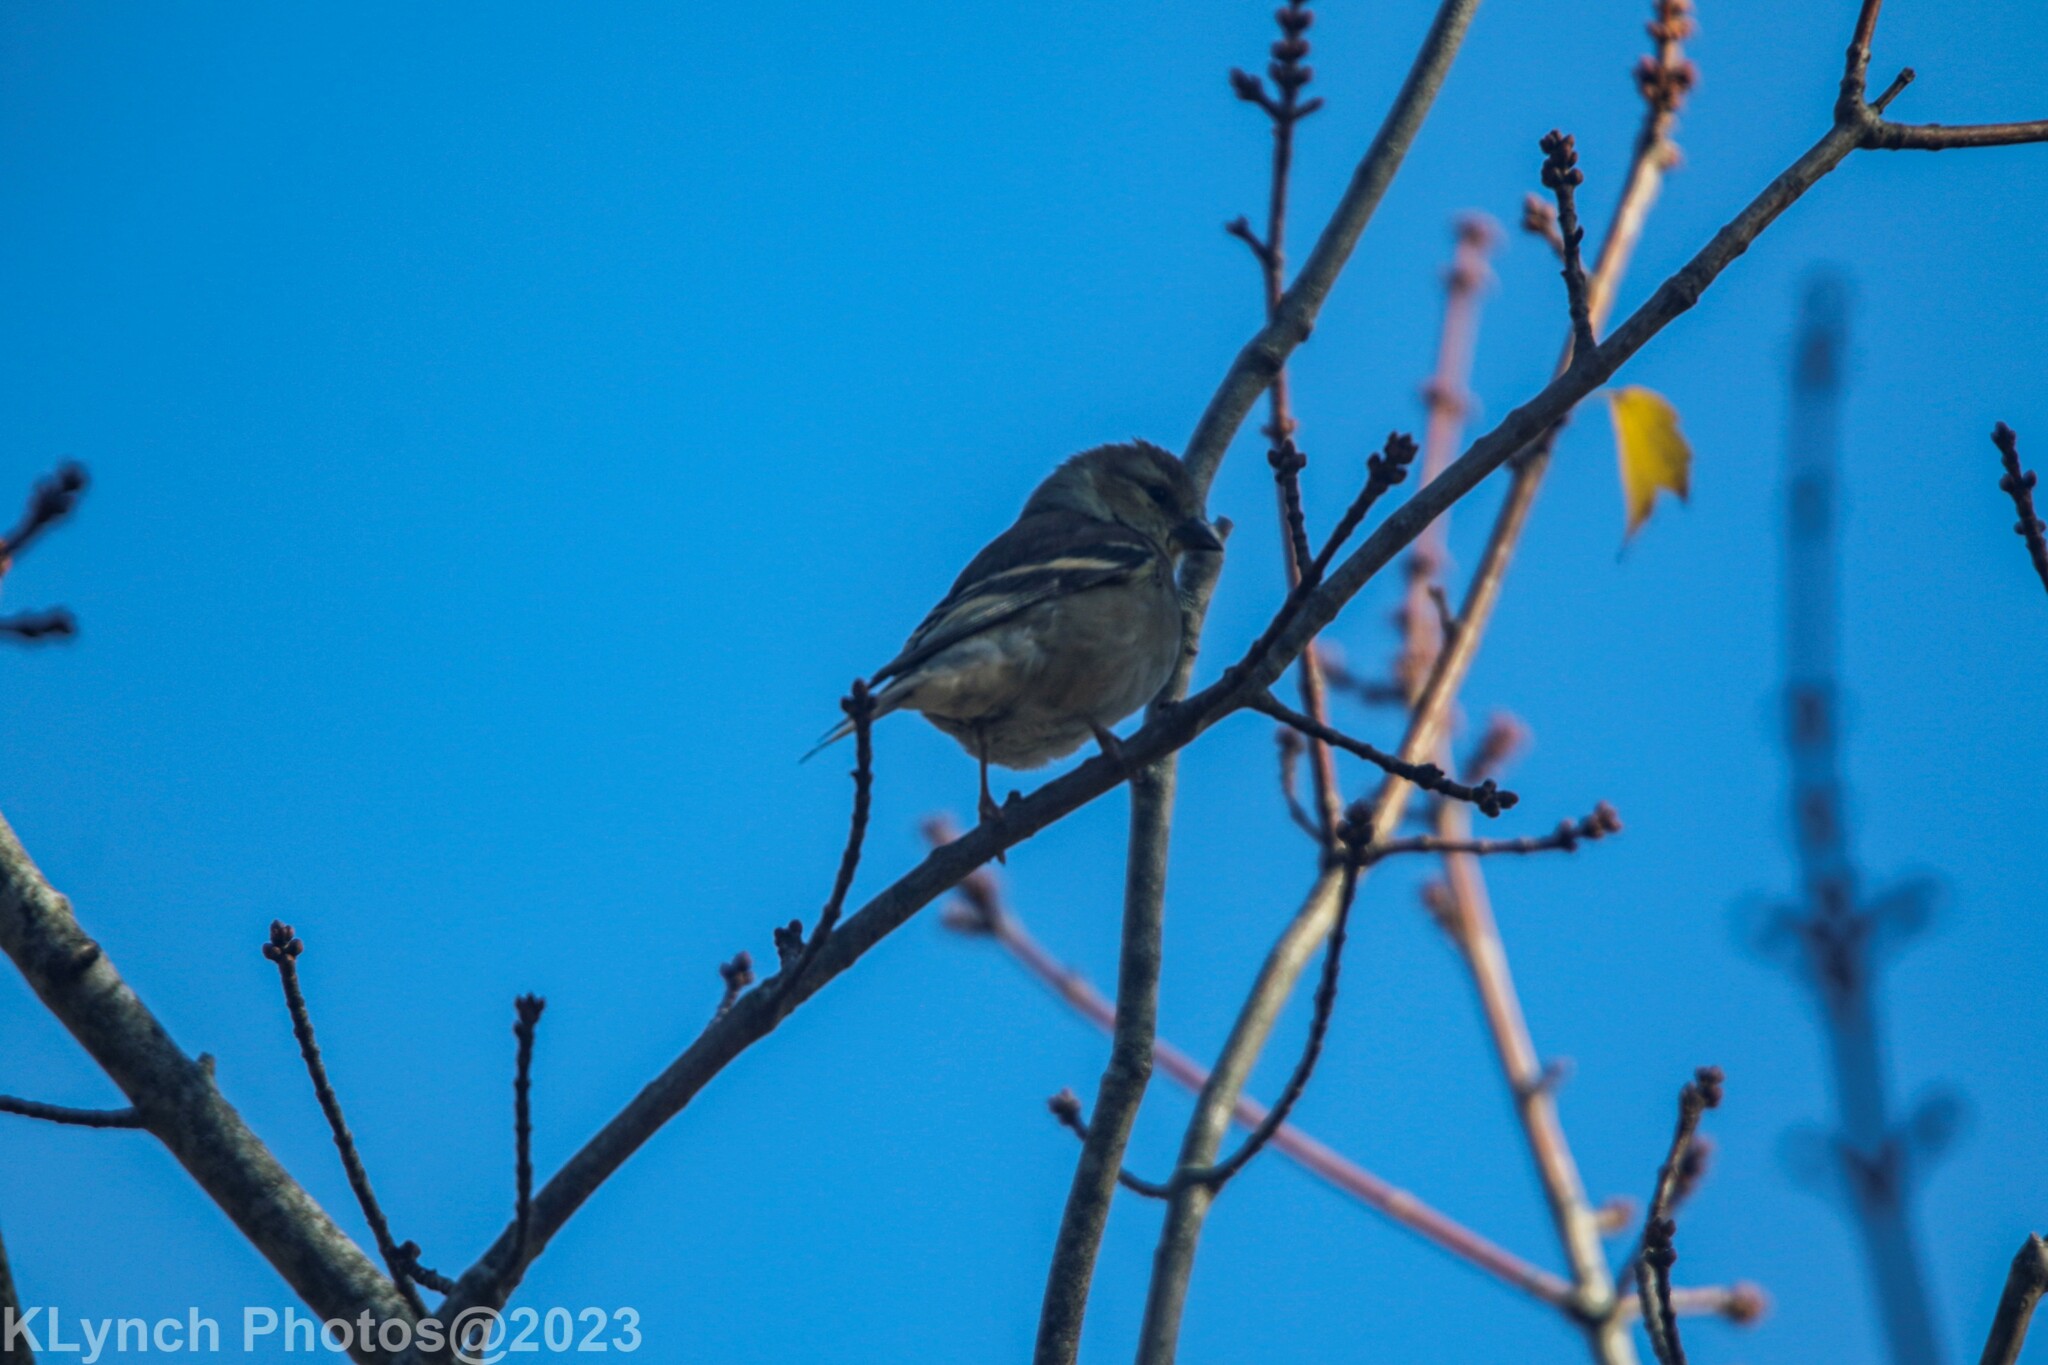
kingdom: Animalia
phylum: Chordata
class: Aves
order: Passeriformes
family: Fringillidae
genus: Spinus
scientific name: Spinus tristis
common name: American goldfinch
